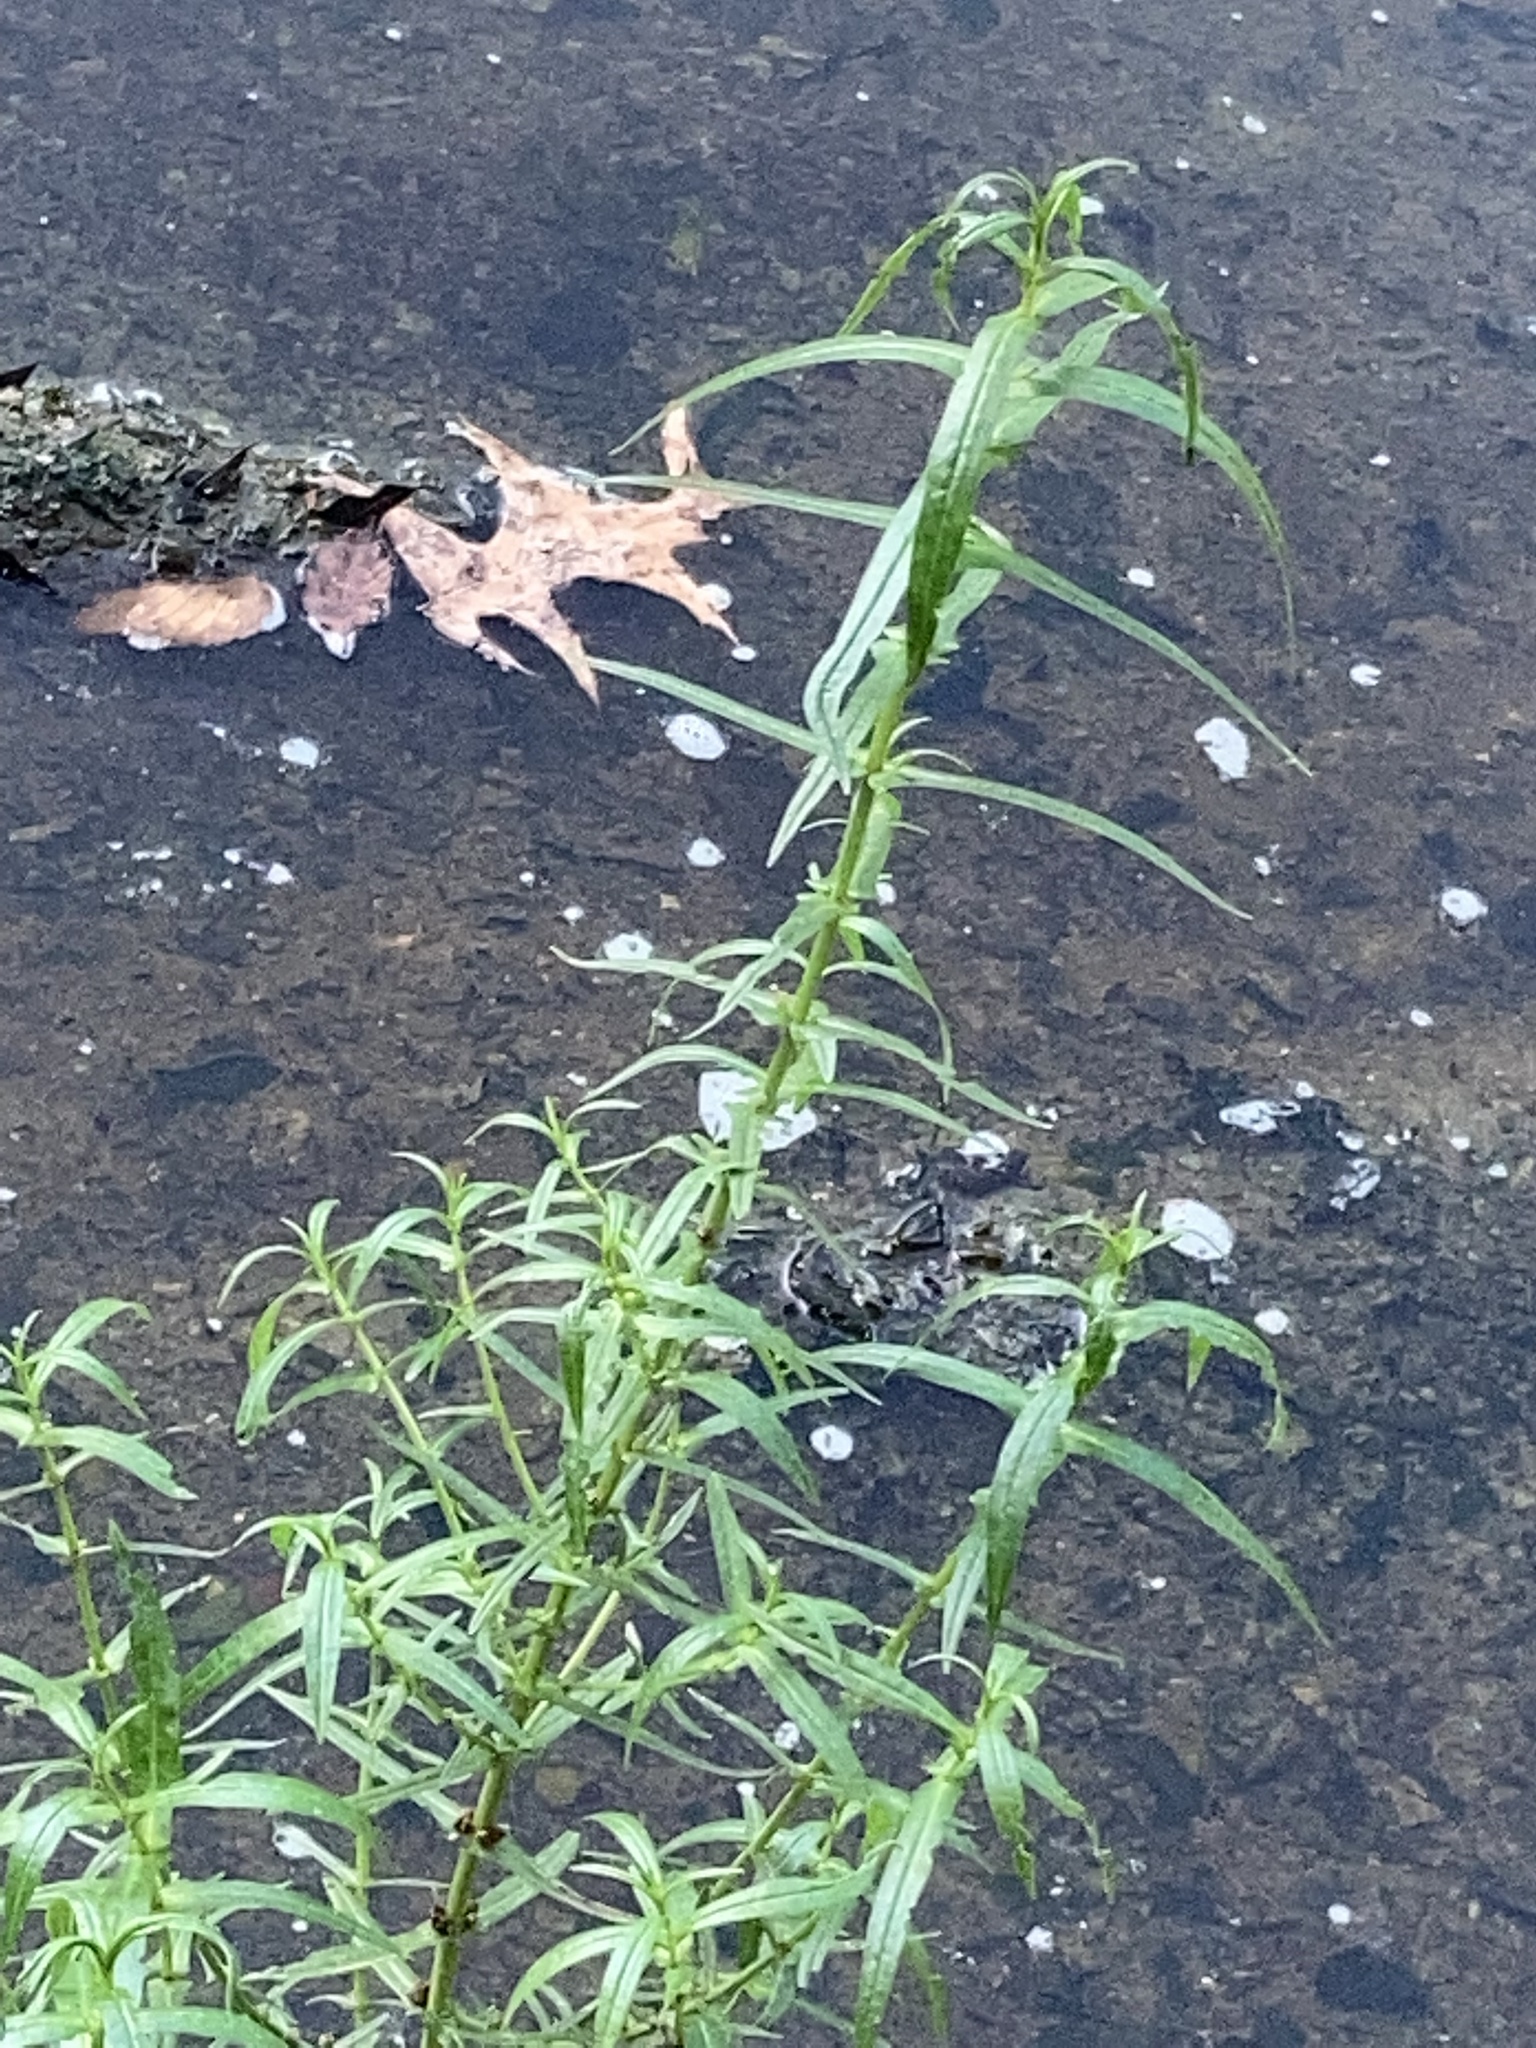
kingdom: Plantae
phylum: Tracheophyta
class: Magnoliopsida
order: Myrtales
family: Lythraceae
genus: Ammannia
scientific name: Ammannia coccinea
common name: Valley redstem
